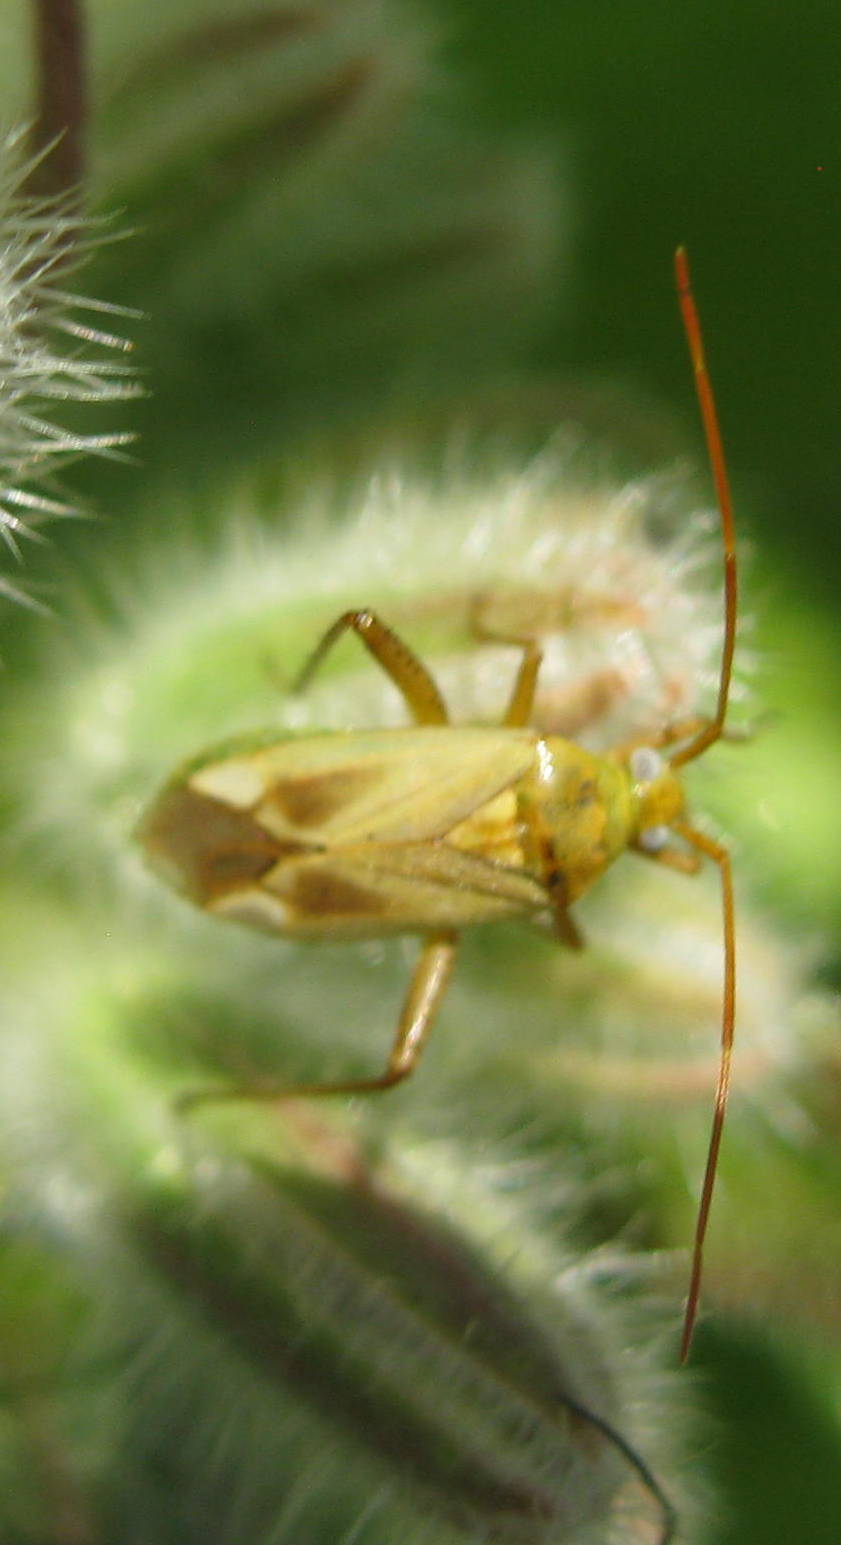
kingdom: Animalia
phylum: Arthropoda
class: Insecta
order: Hemiptera
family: Miridae
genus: Adelphocoris
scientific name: Adelphocoris lineolatus
